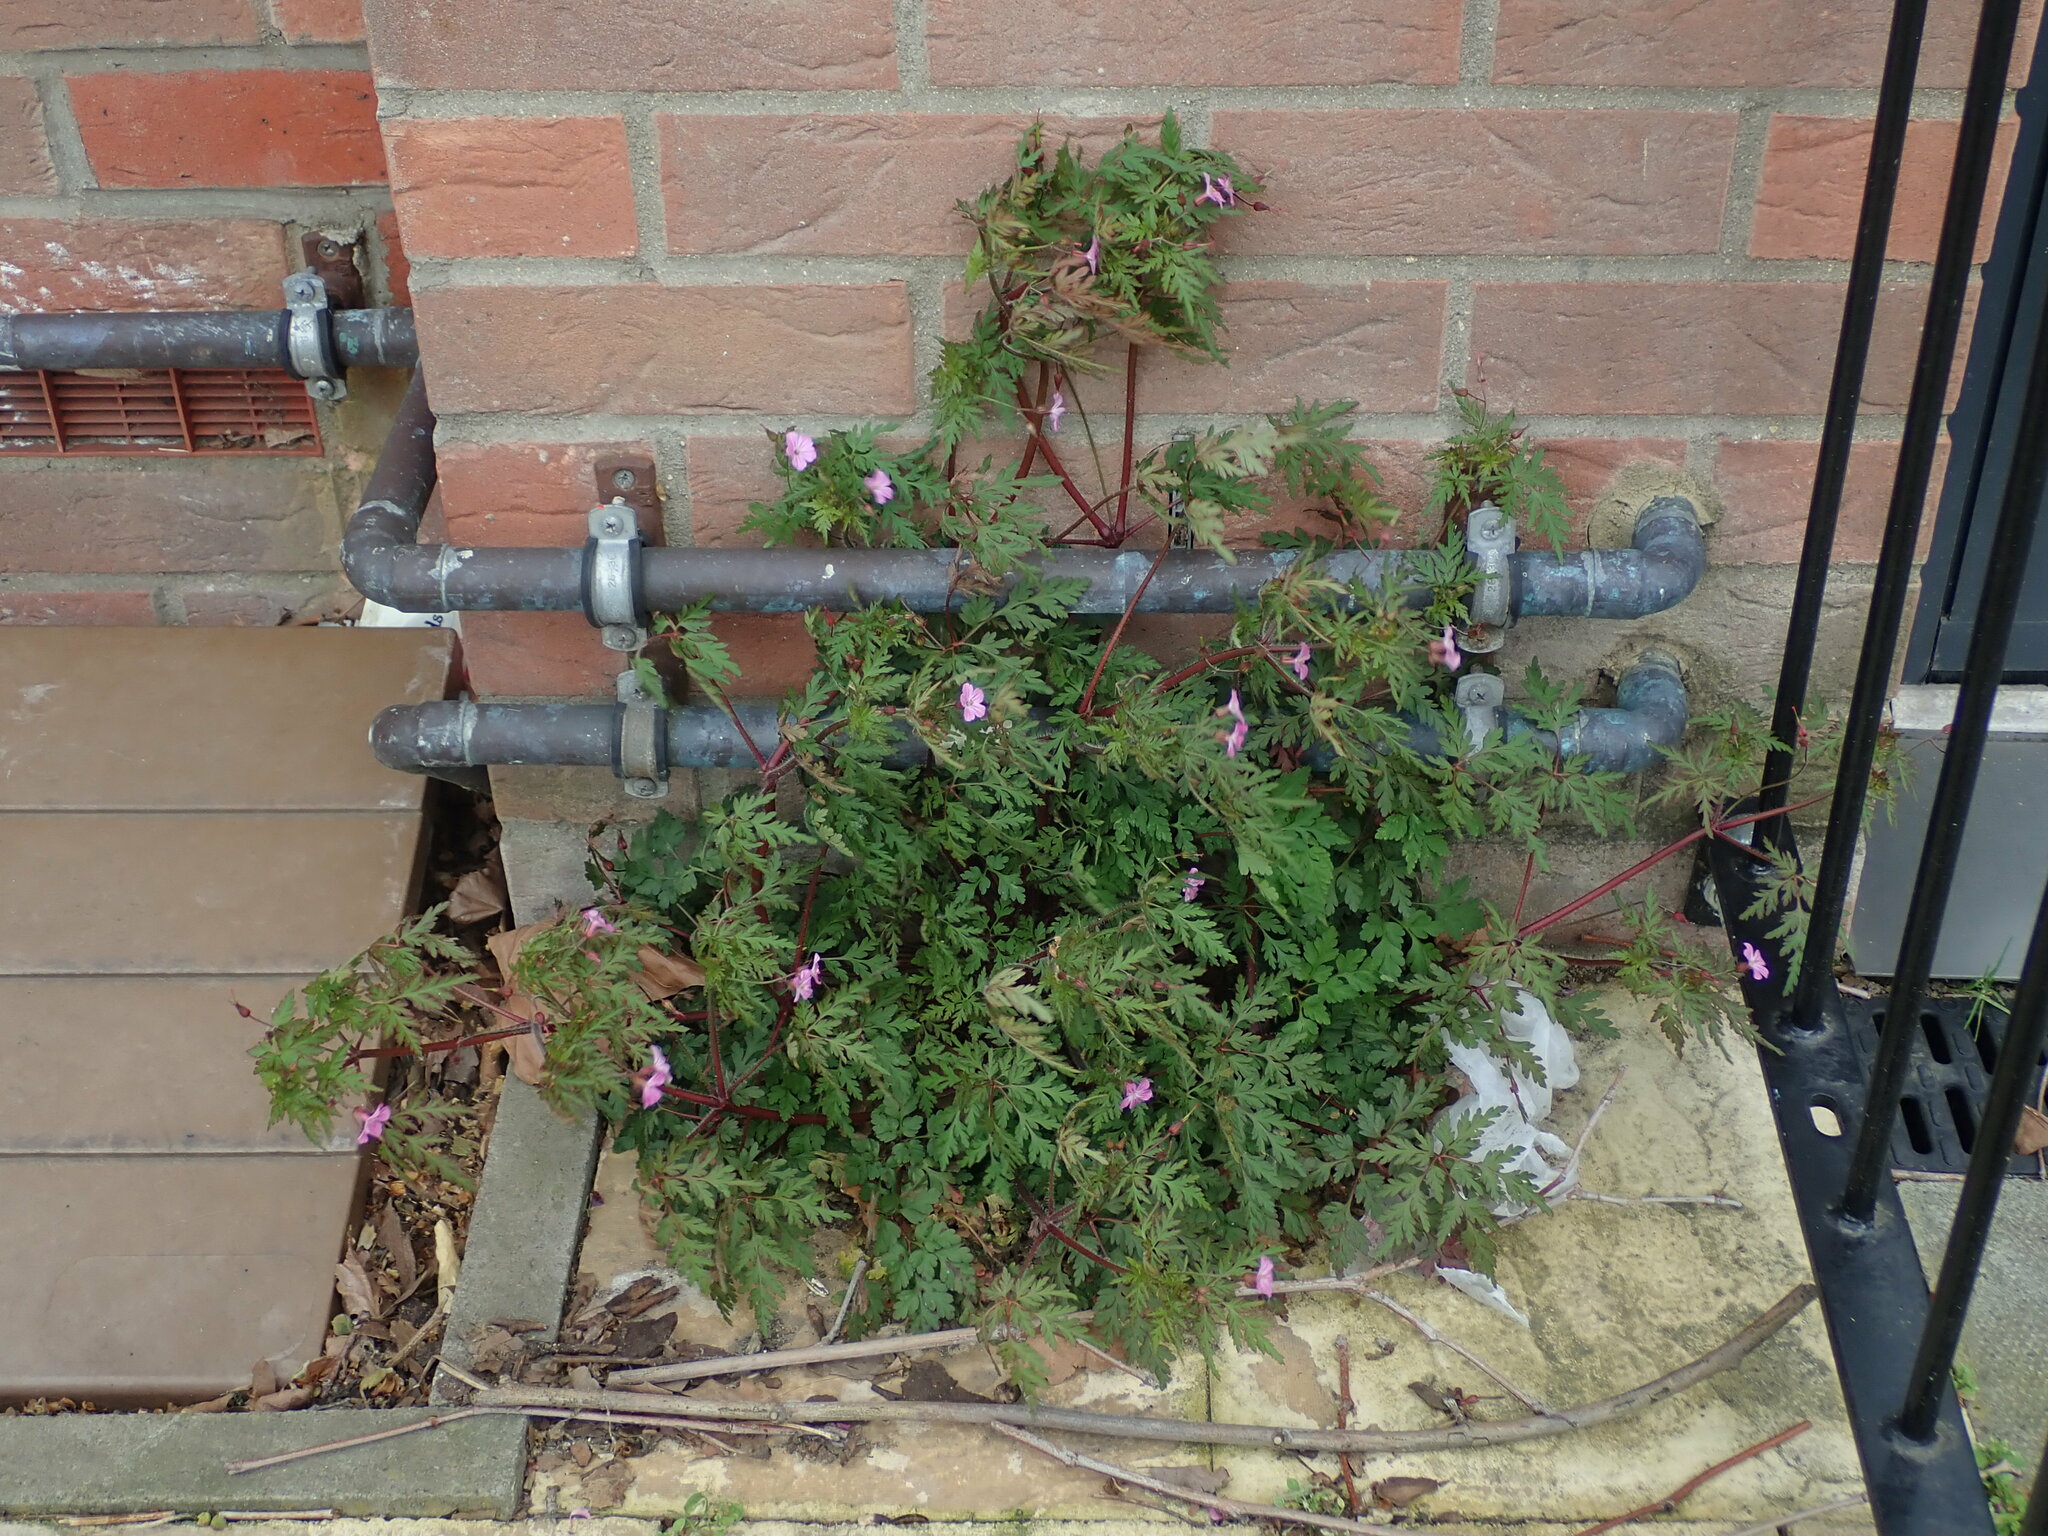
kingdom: Plantae
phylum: Tracheophyta
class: Magnoliopsida
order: Geraniales
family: Geraniaceae
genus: Geranium
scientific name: Geranium robertianum
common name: Herb-robert
